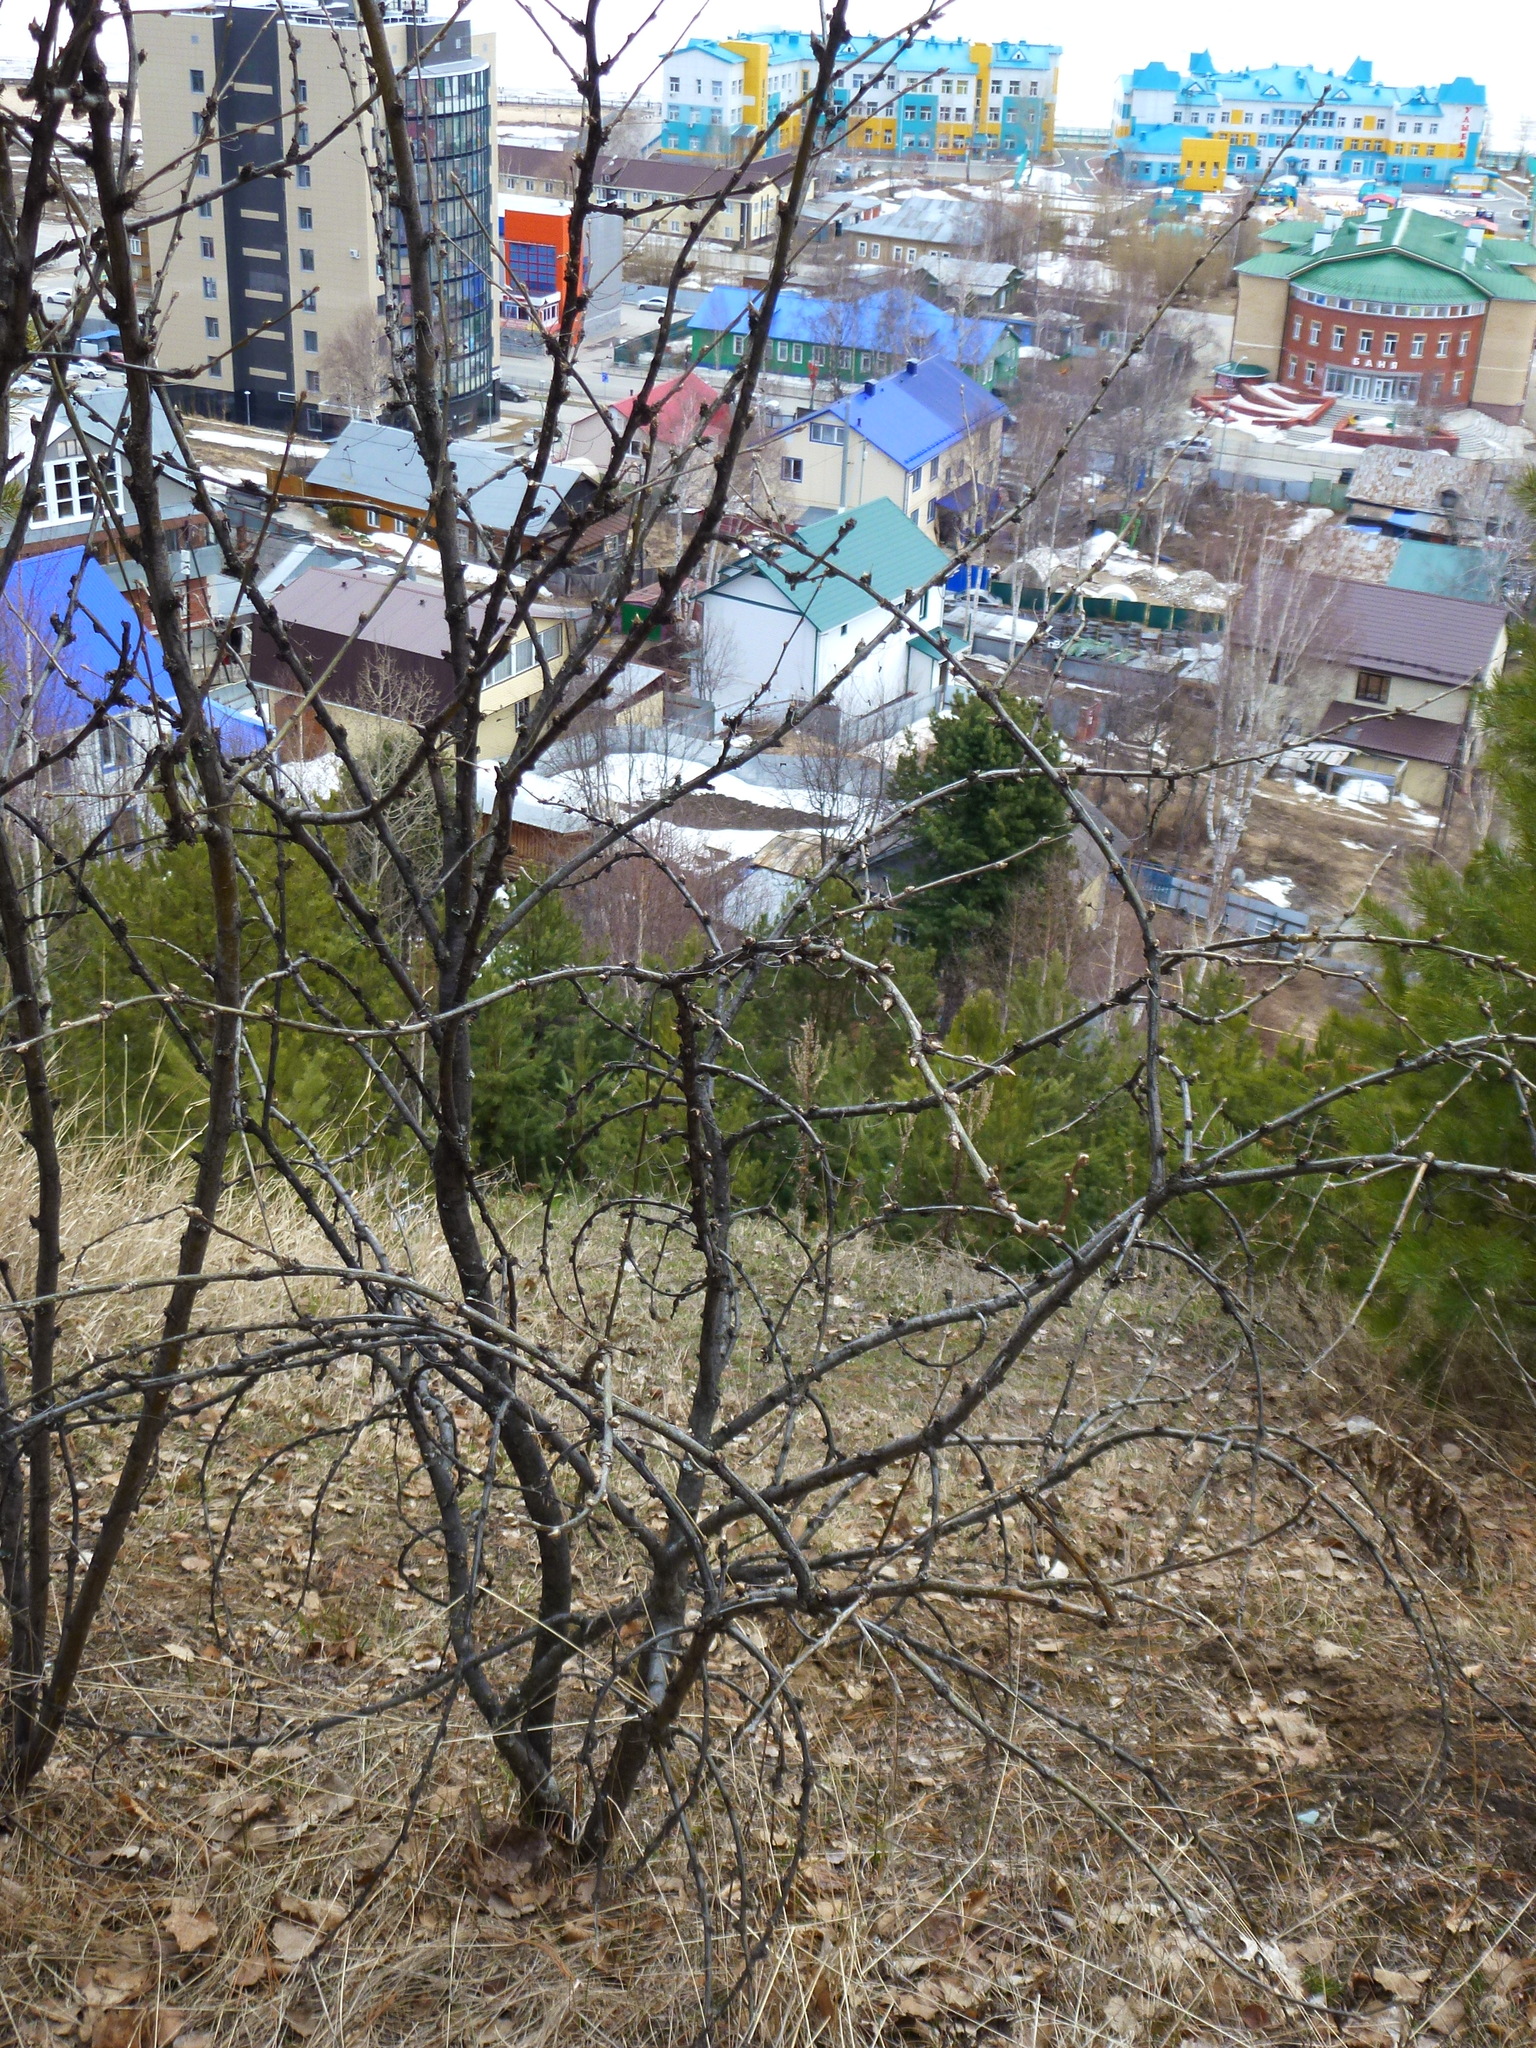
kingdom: Plantae
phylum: Tracheophyta
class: Magnoliopsida
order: Fabales
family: Fabaceae
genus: Caragana
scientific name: Caragana arborescens
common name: Siberian peashrub
